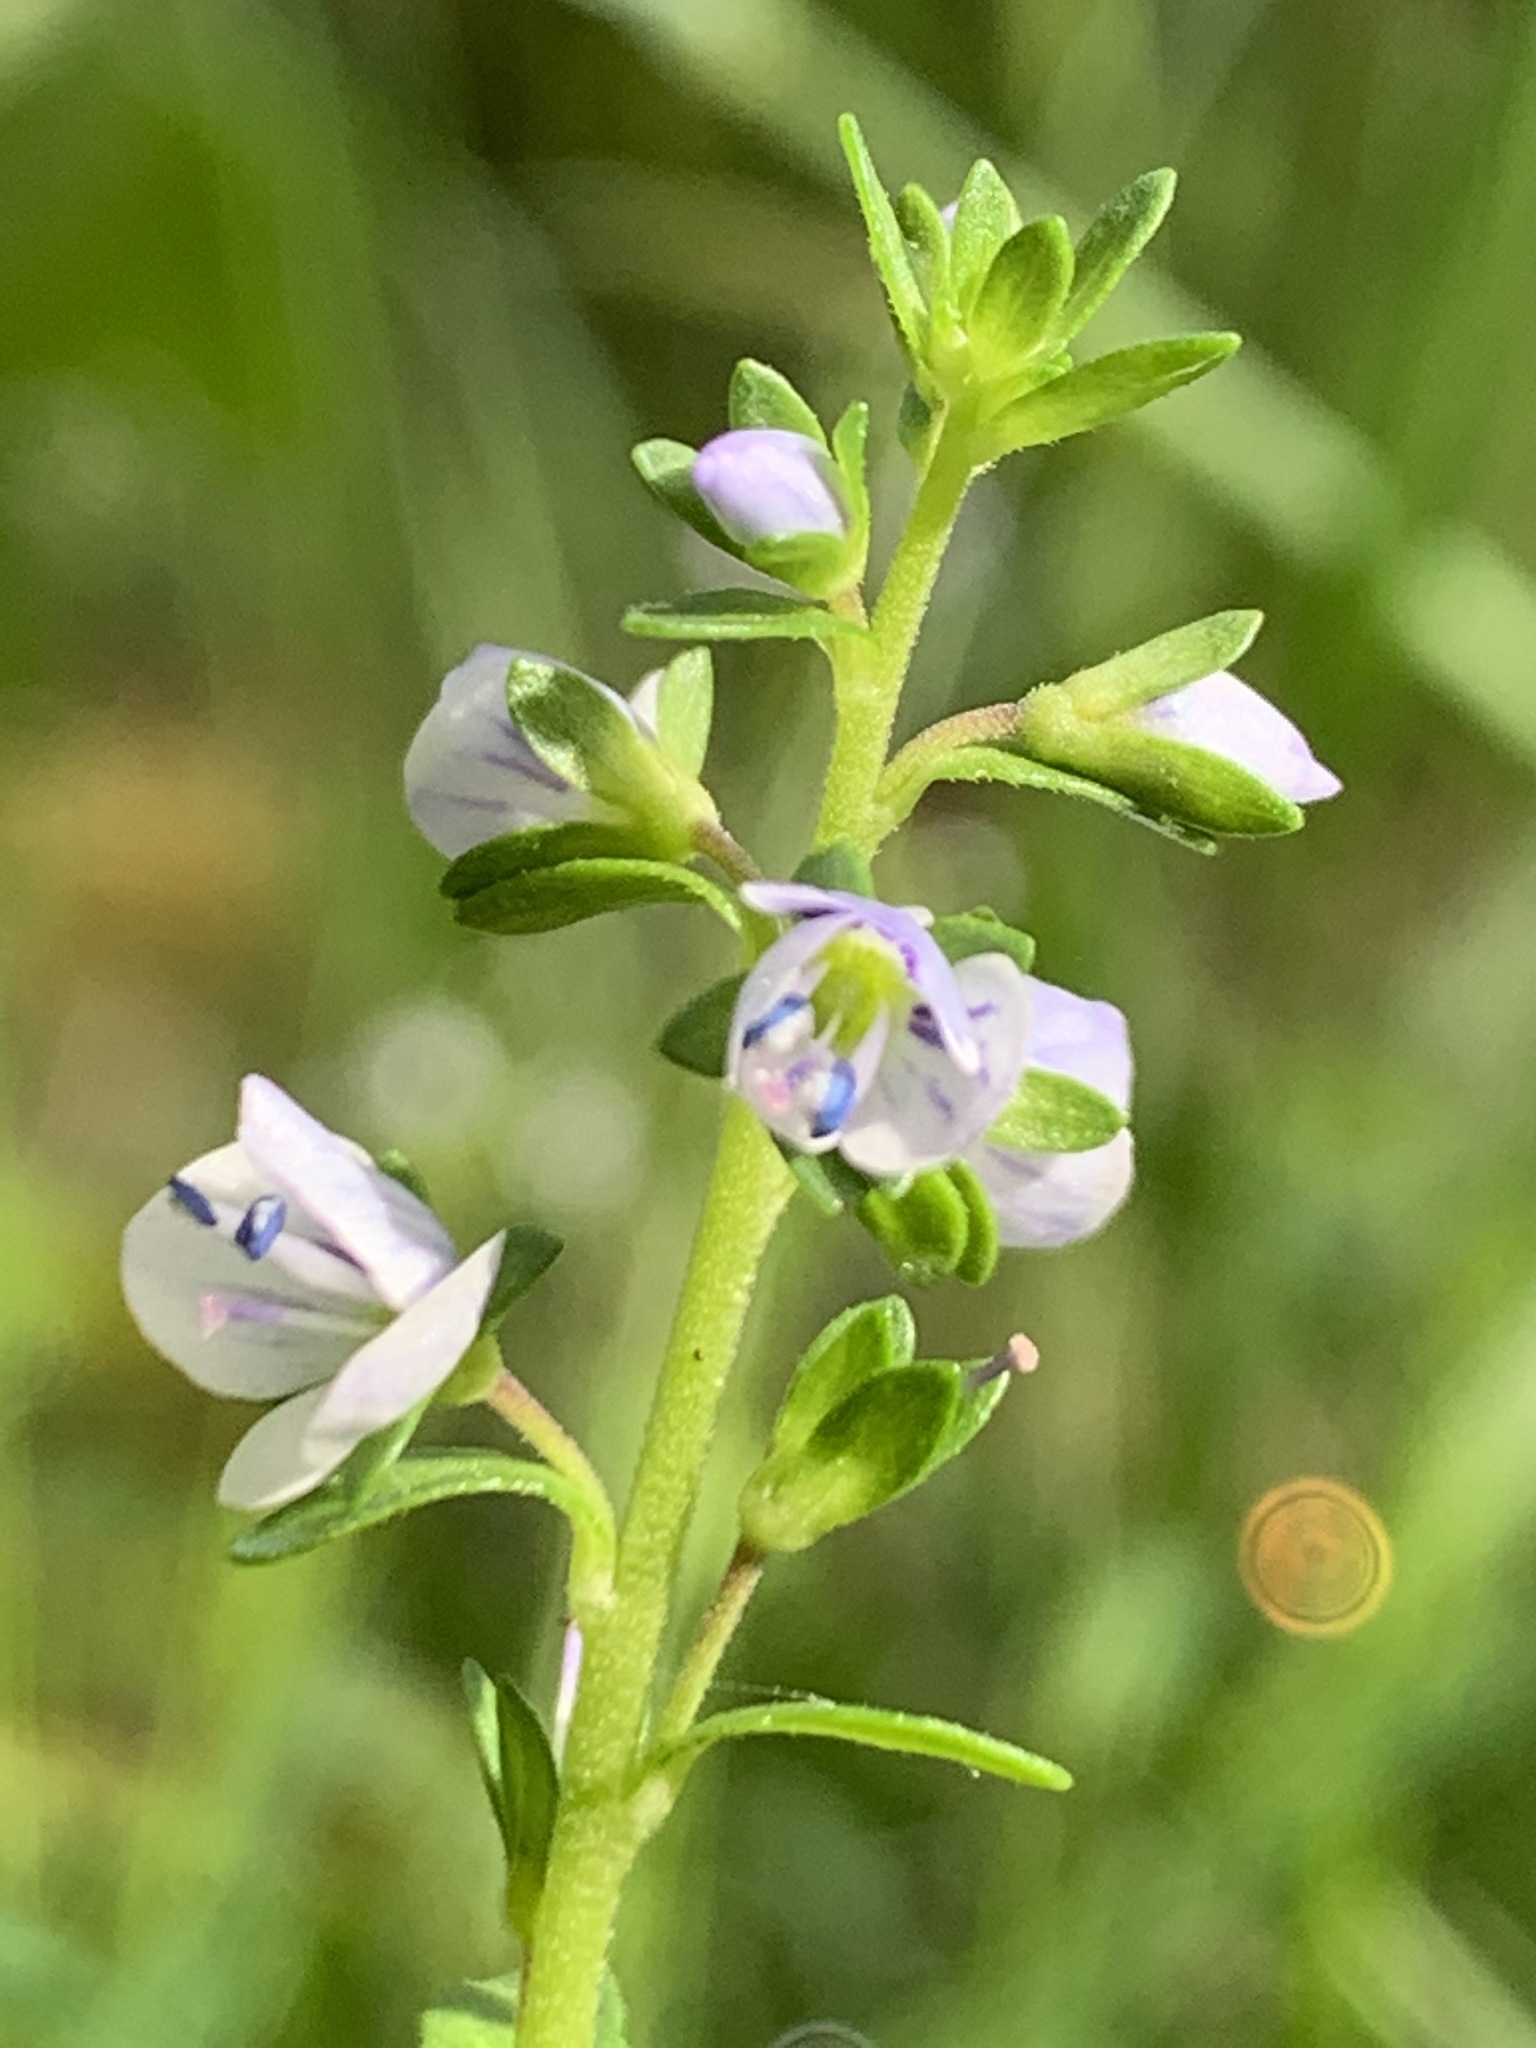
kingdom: Plantae
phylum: Tracheophyta
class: Magnoliopsida
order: Lamiales
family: Plantaginaceae
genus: Veronica
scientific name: Veronica serpyllifolia
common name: Thyme-leaved speedwell
